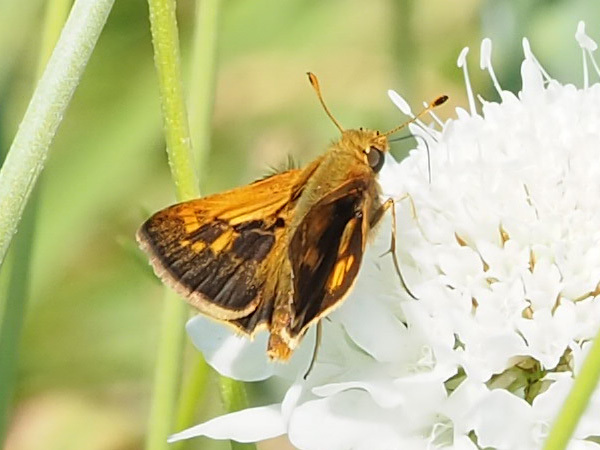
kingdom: Animalia
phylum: Arthropoda
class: Insecta
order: Lepidoptera
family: Hesperiidae
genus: Polites
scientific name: Polites coras
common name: Peck's skipper
